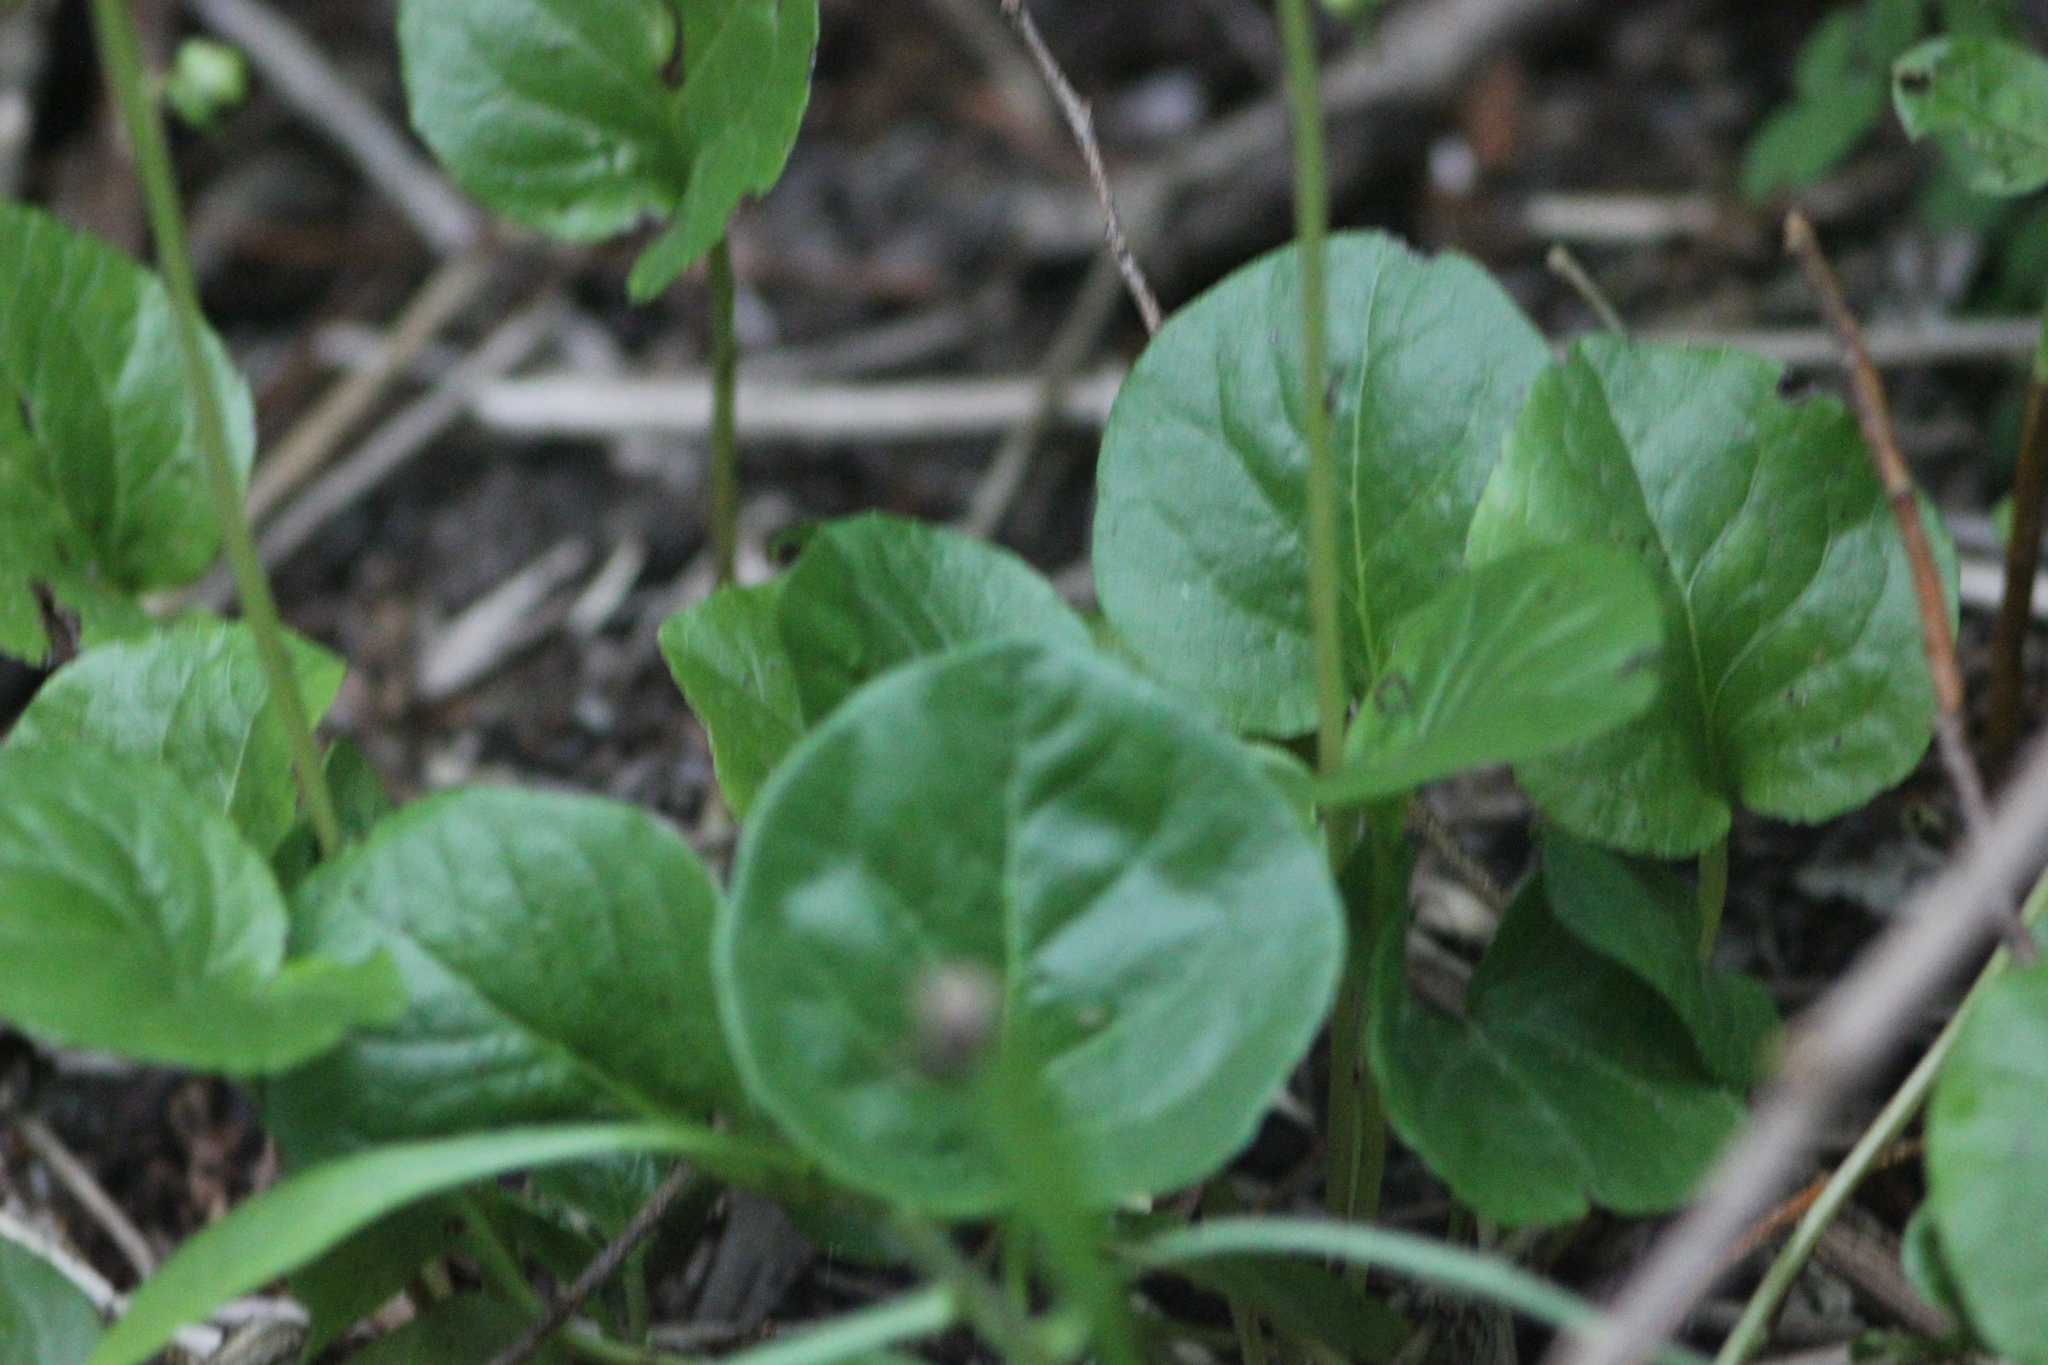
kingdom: Plantae
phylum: Tracheophyta
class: Magnoliopsida
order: Ericales
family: Ericaceae
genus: Pyrola
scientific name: Pyrola rotundifolia
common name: Round-leaved wintergreen
